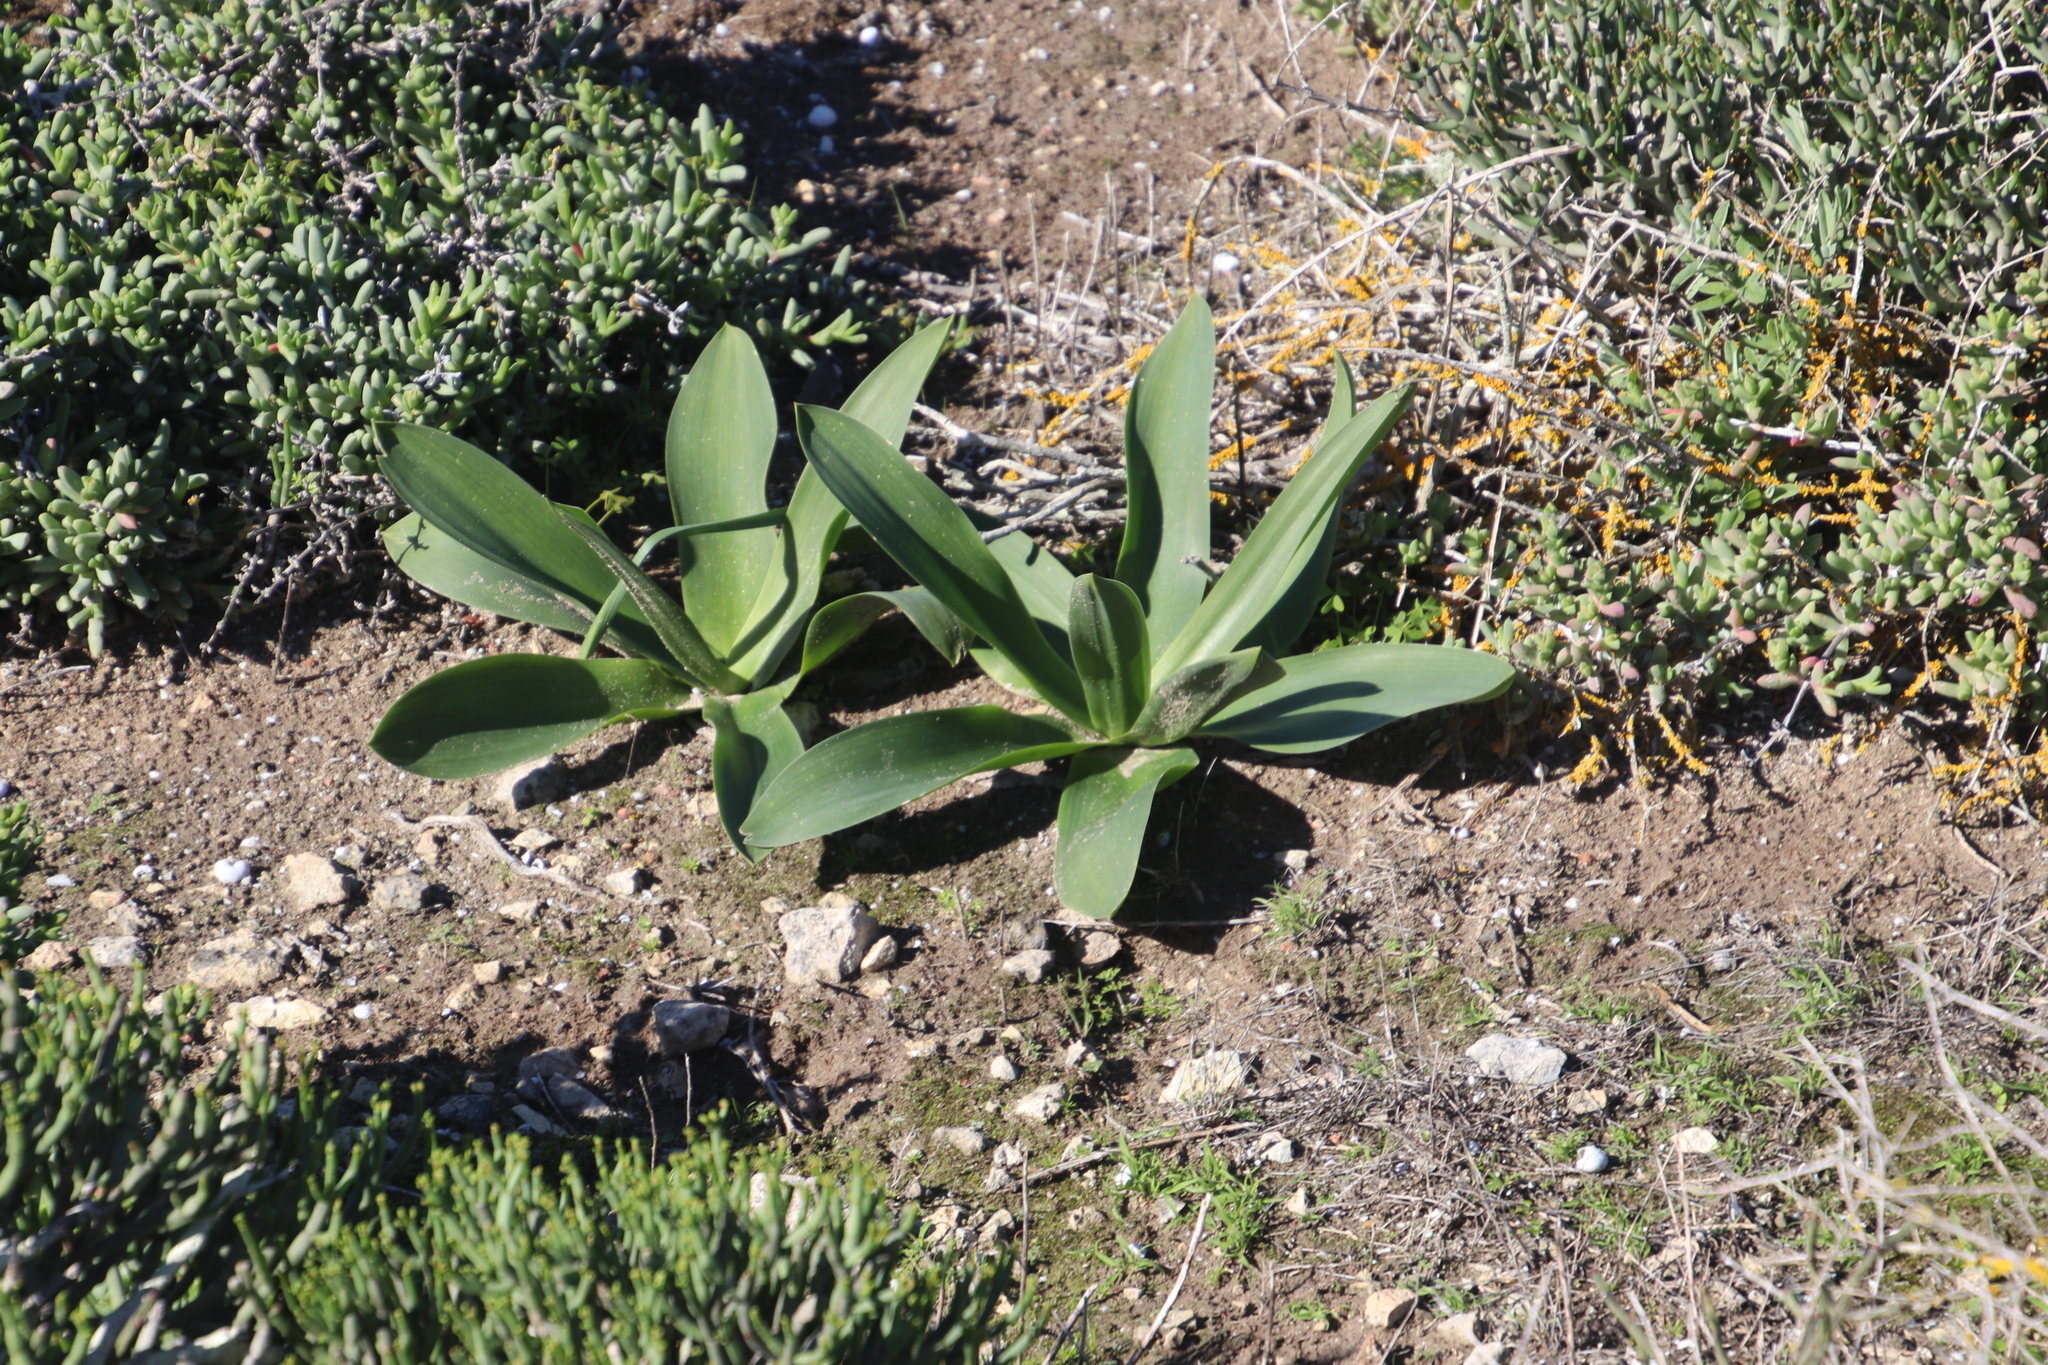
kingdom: Plantae
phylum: Tracheophyta
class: Liliopsida
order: Asparagales
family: Asparagaceae
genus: Drimia
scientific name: Drimia capensis
